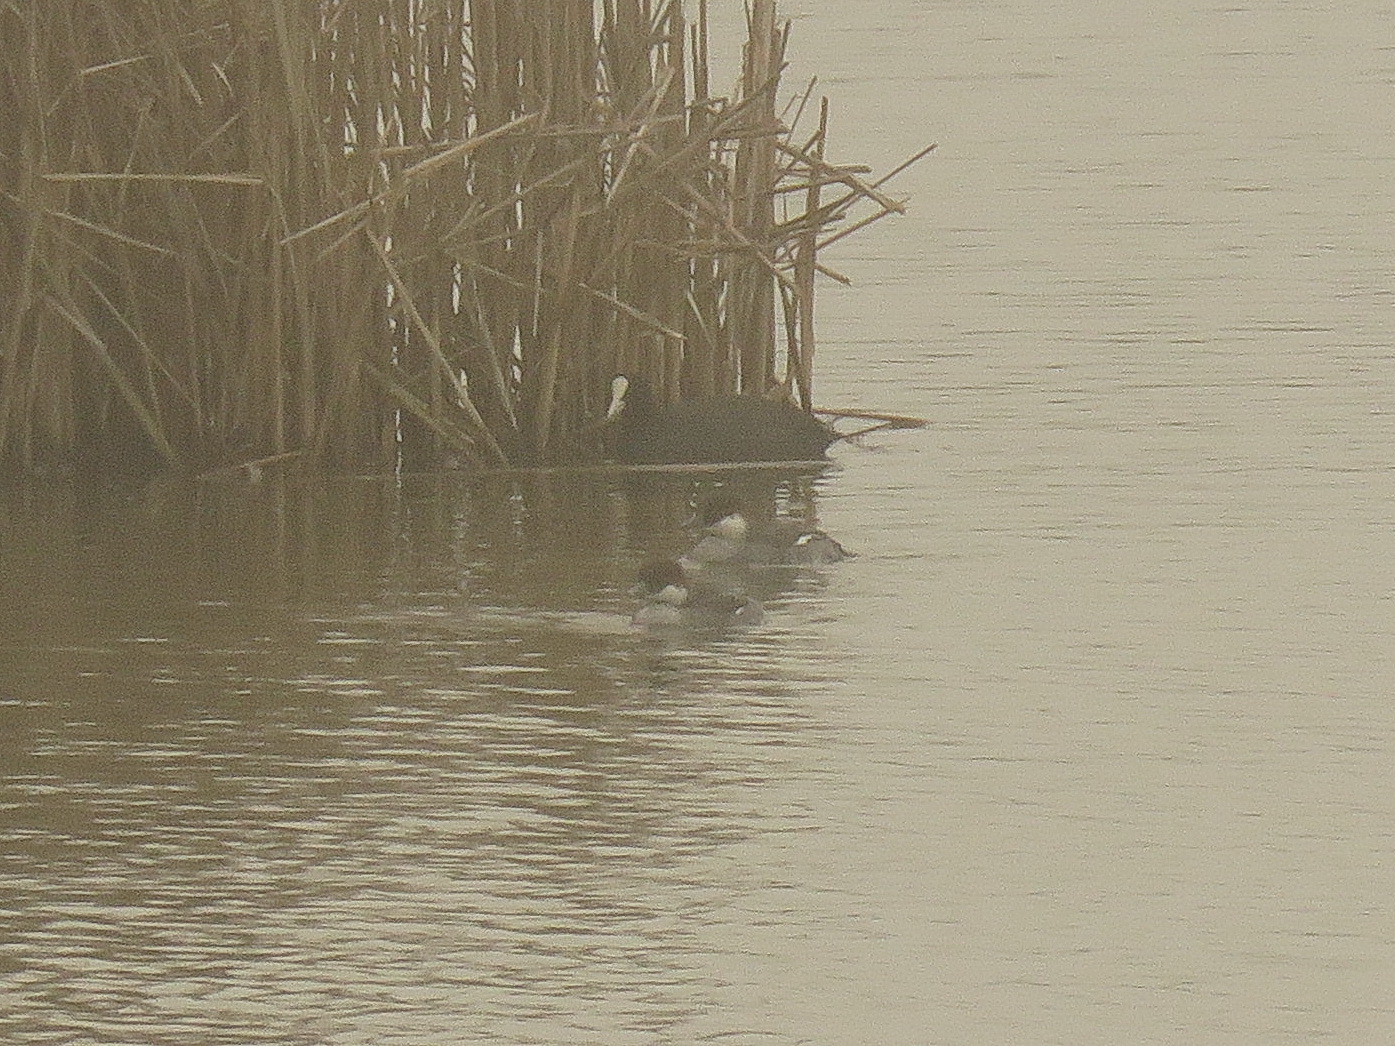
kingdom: Animalia
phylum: Chordata
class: Aves
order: Anseriformes
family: Anatidae
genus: Mergellus
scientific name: Mergellus albellus
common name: Smew
